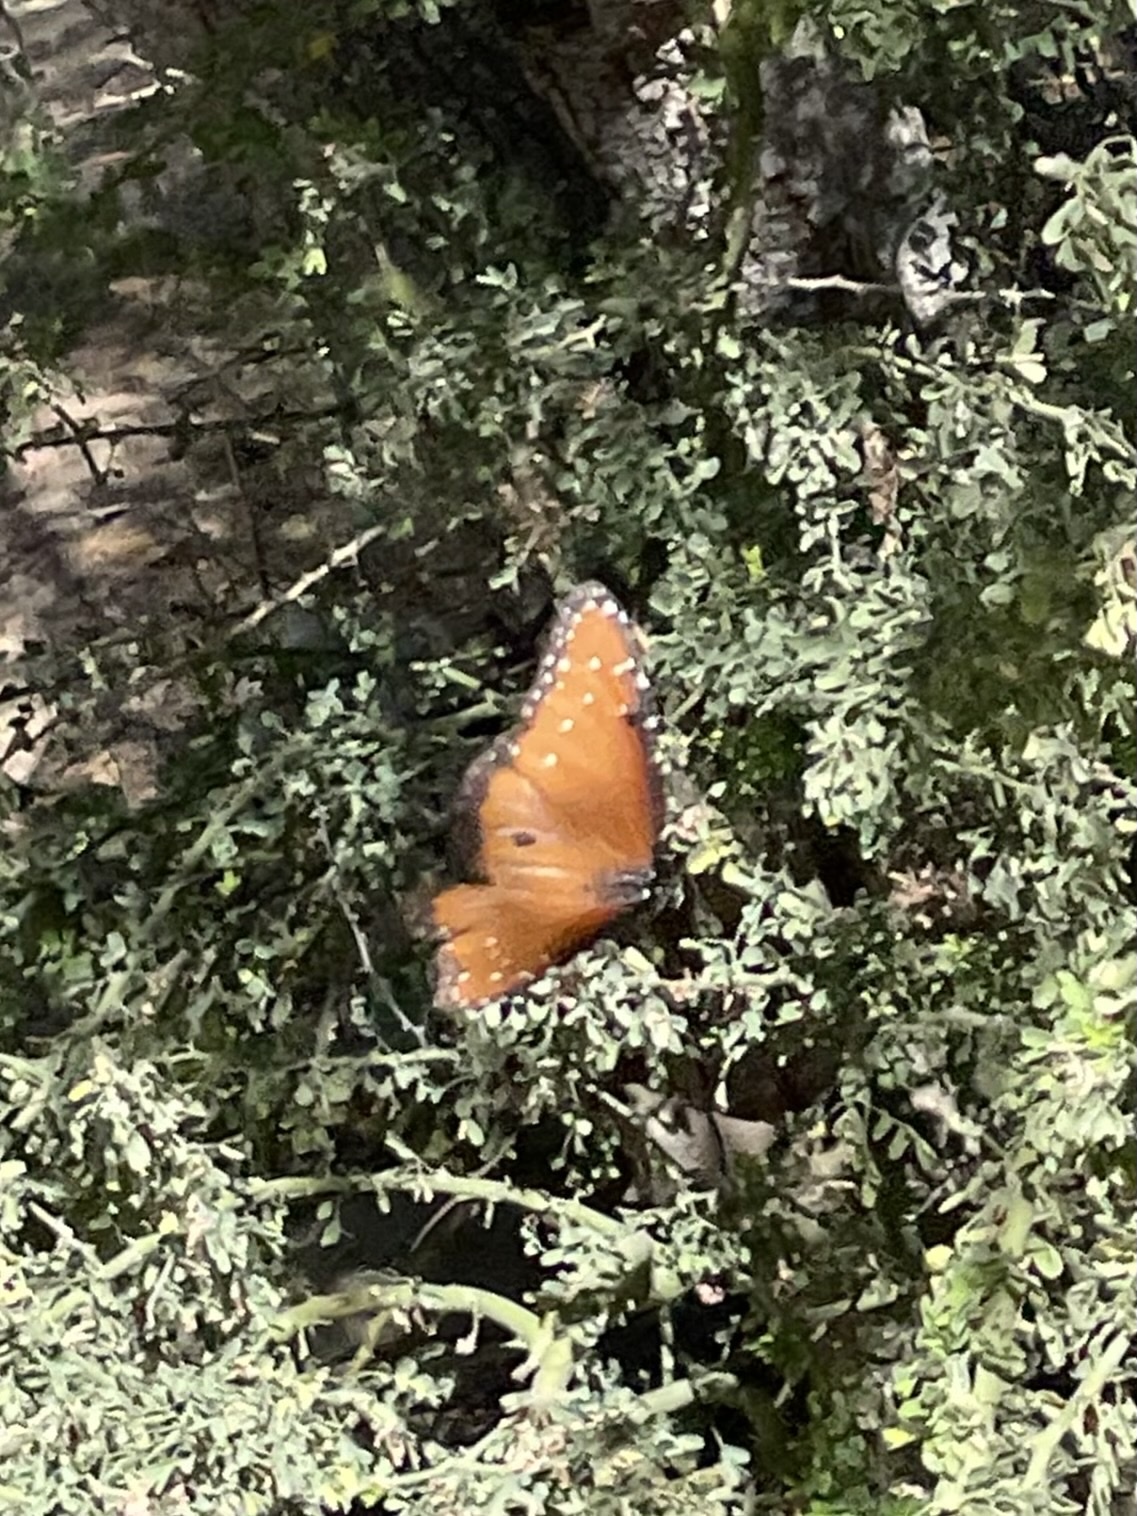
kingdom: Animalia
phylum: Arthropoda
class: Insecta
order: Lepidoptera
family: Nymphalidae
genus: Danaus
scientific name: Danaus gilippus
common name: Queen
